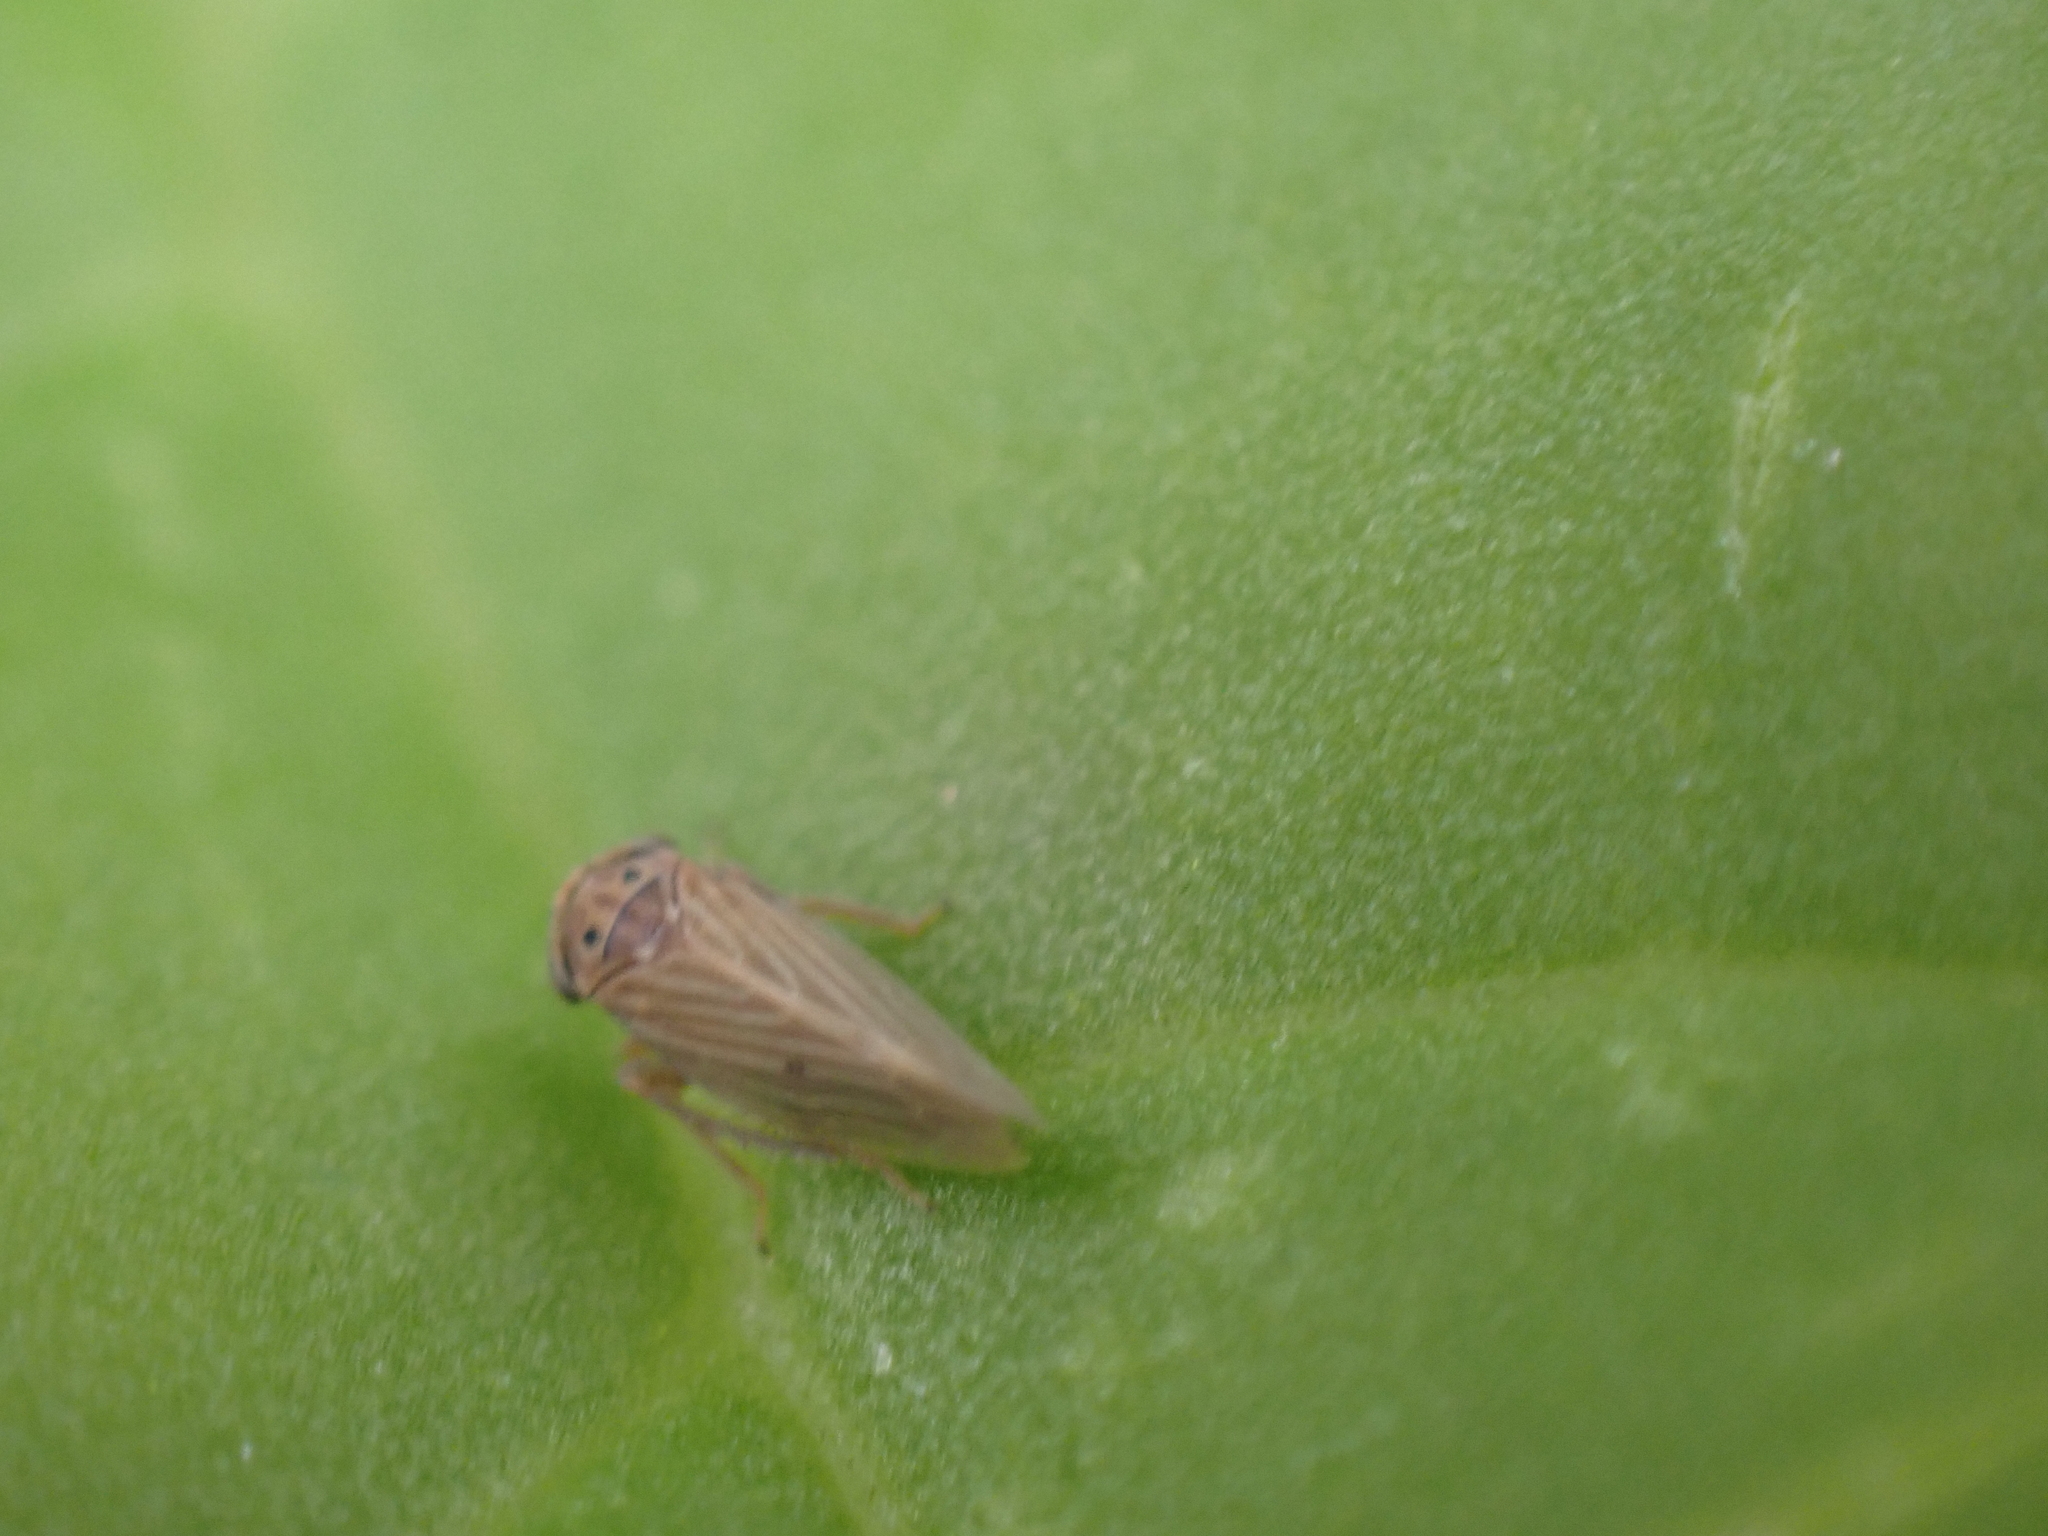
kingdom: Animalia
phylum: Arthropoda
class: Insecta
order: Hemiptera
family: Cicadellidae
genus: Agallia
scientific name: Agallia constricta
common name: The constricted leafhopper
